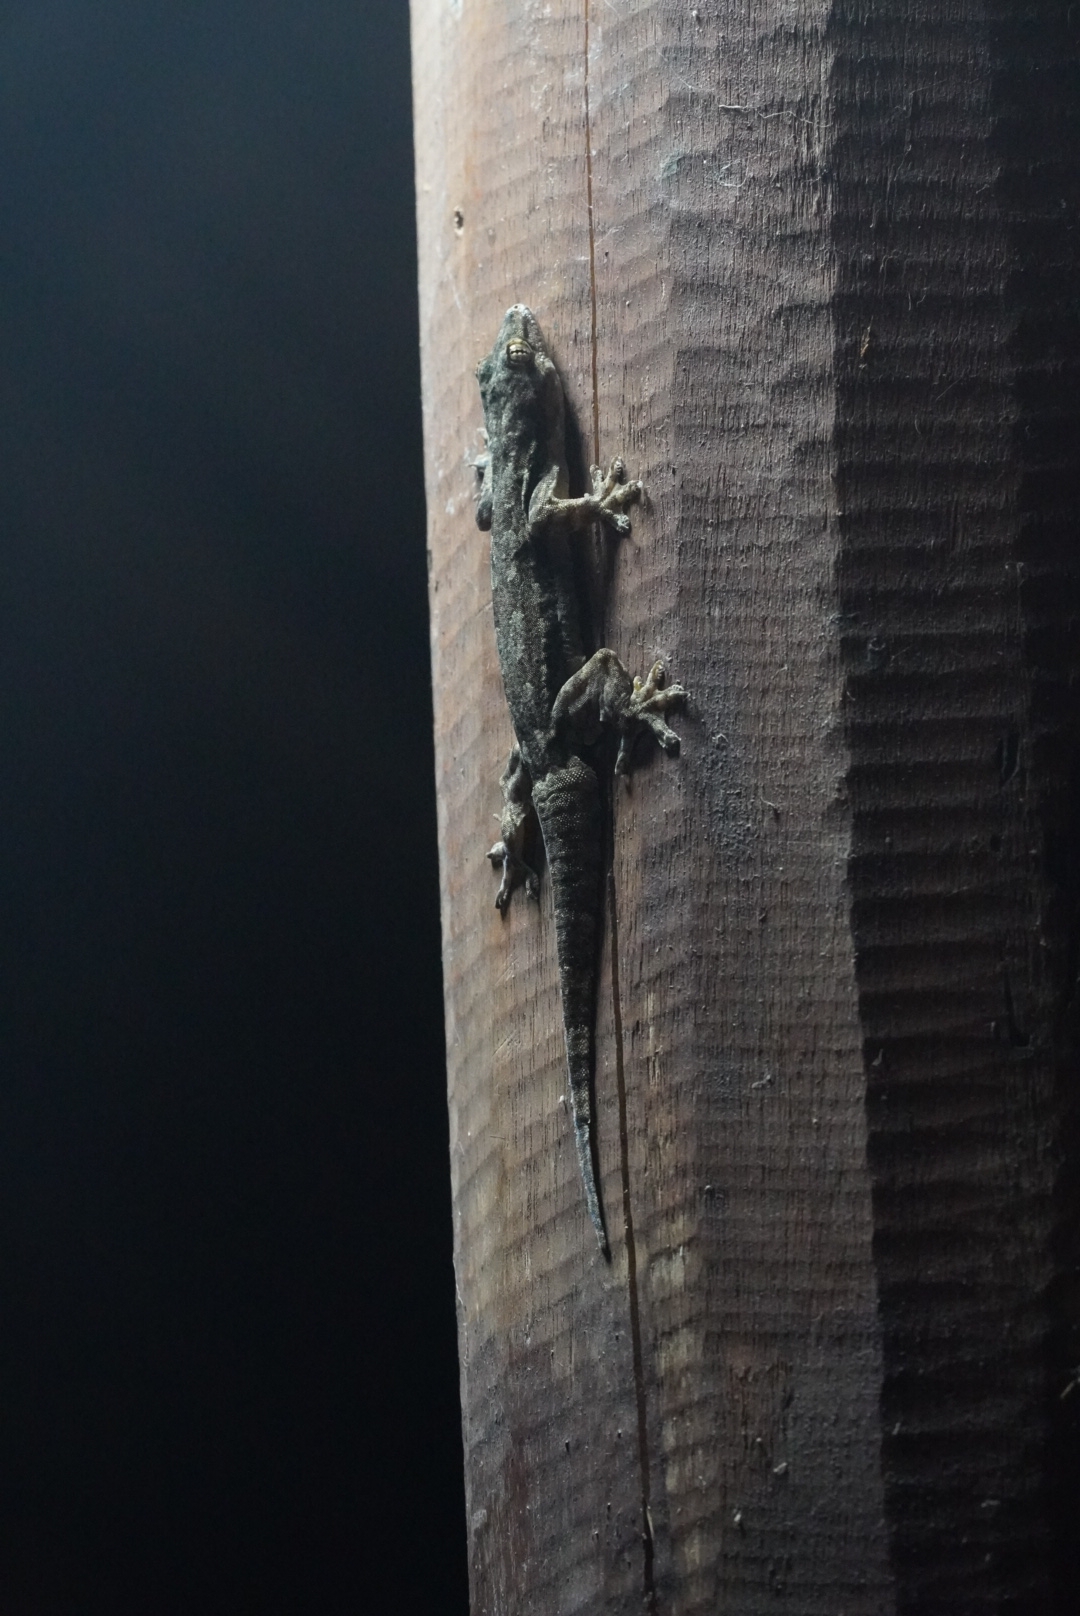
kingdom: Animalia
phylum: Chordata
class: Squamata
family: Gekkonidae
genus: Hemidactylus
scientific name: Hemidactylus platyurus
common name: Flat-tailed house gecko
